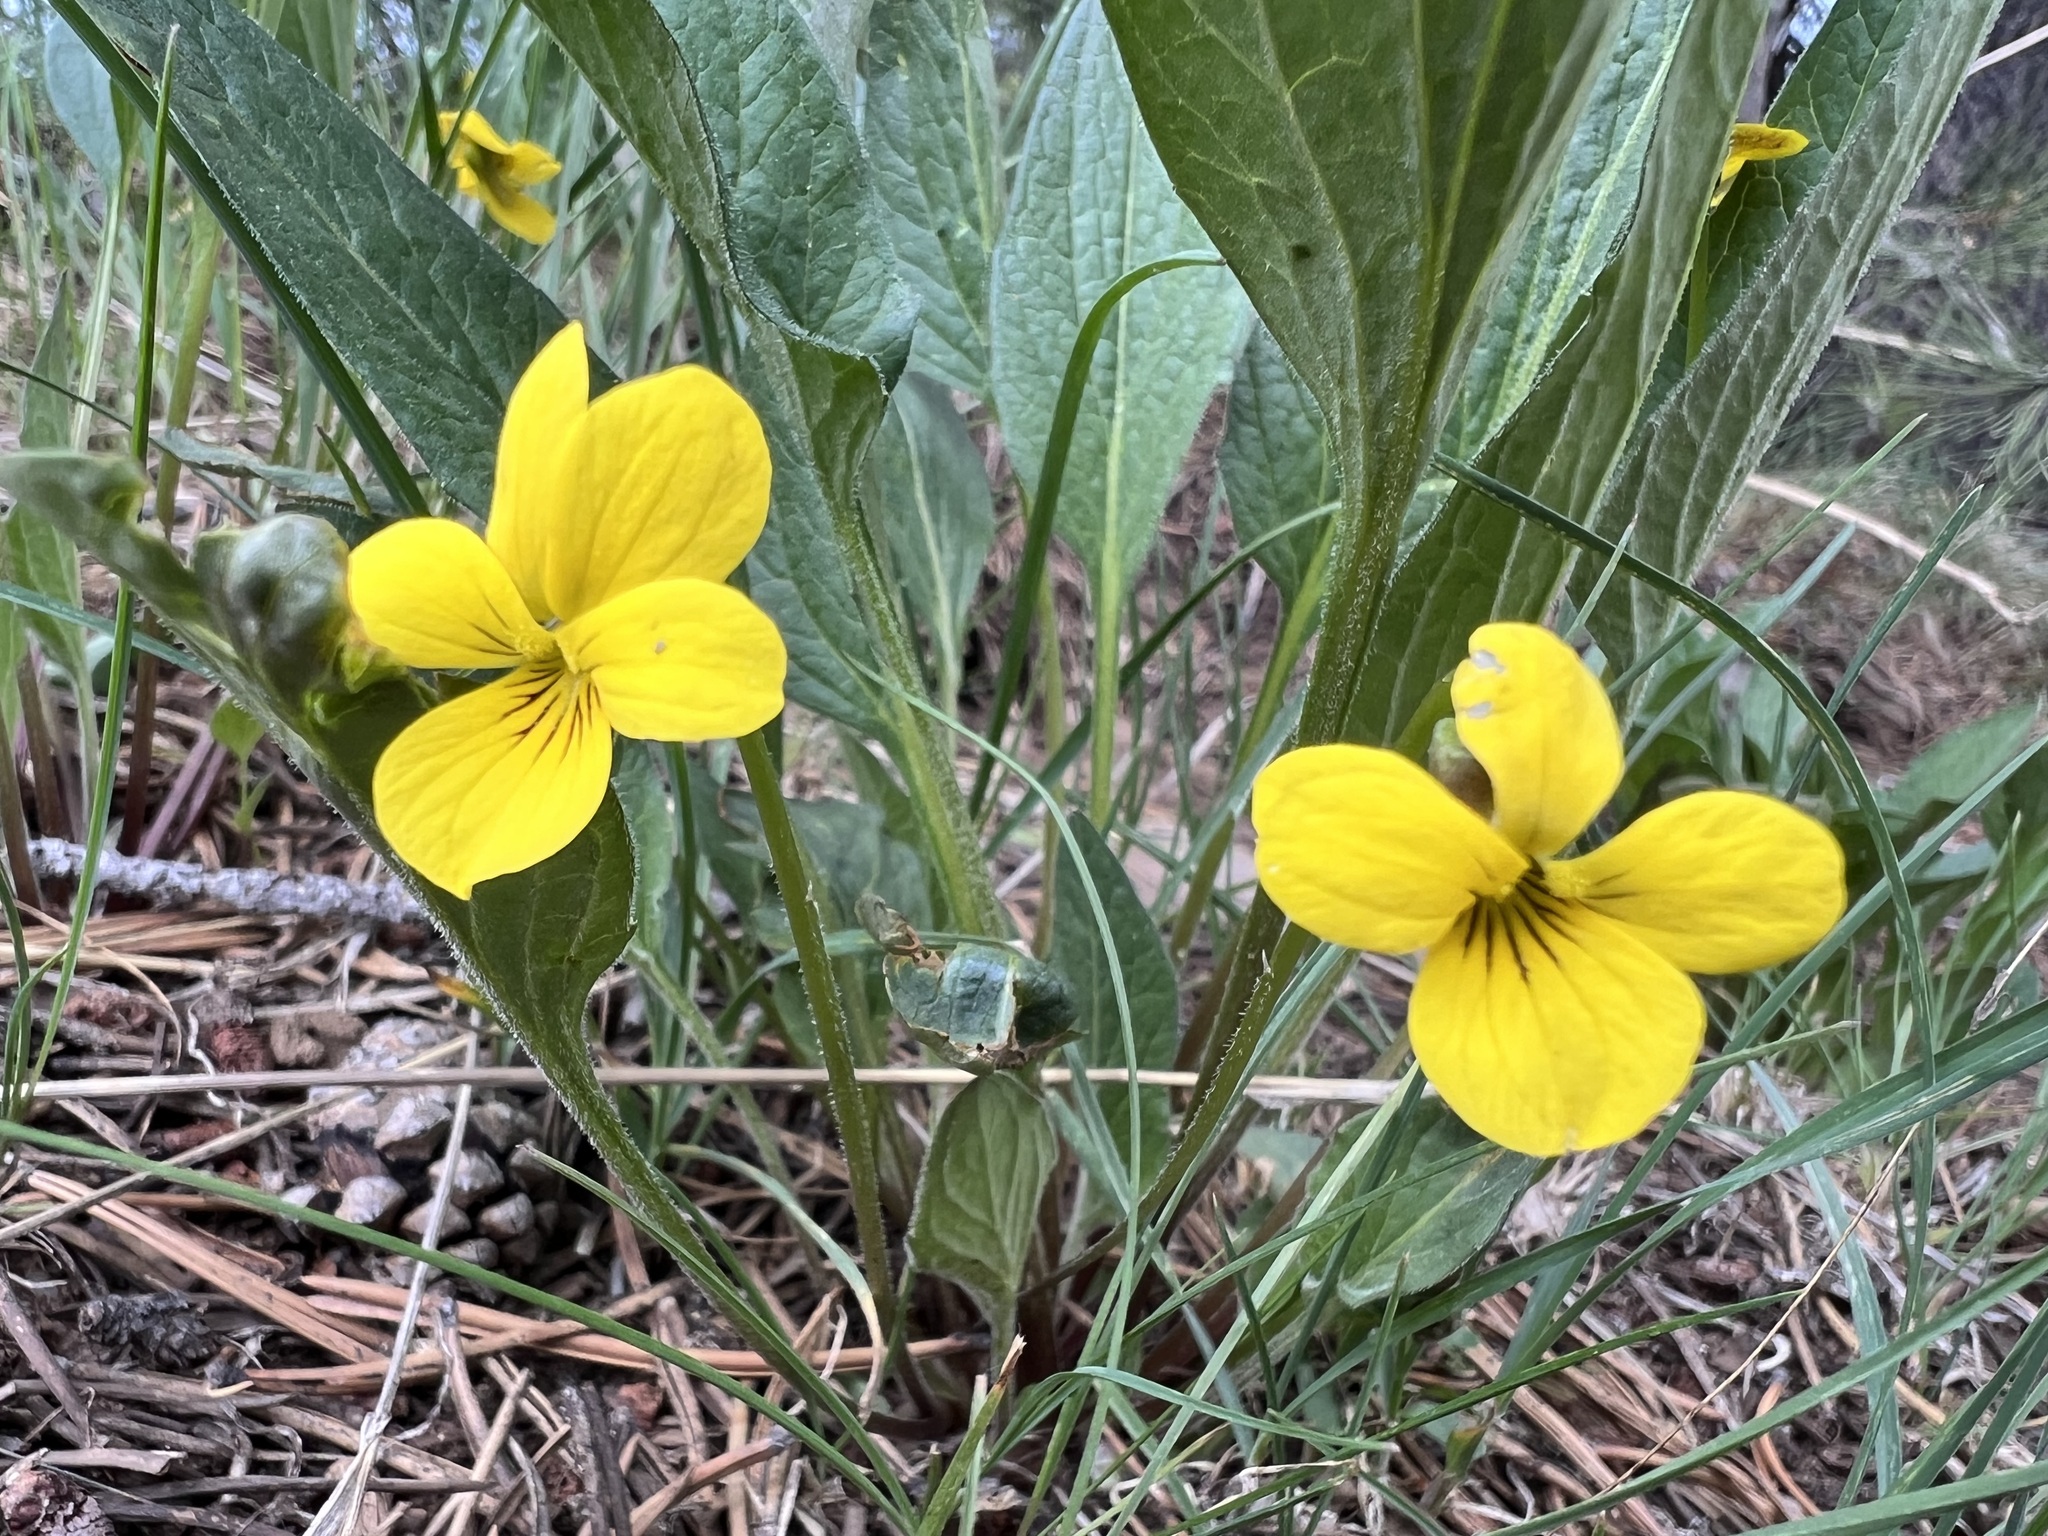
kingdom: Plantae
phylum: Tracheophyta
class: Magnoliopsida
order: Malpighiales
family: Violaceae
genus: Viola
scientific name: Viola praemorsa
